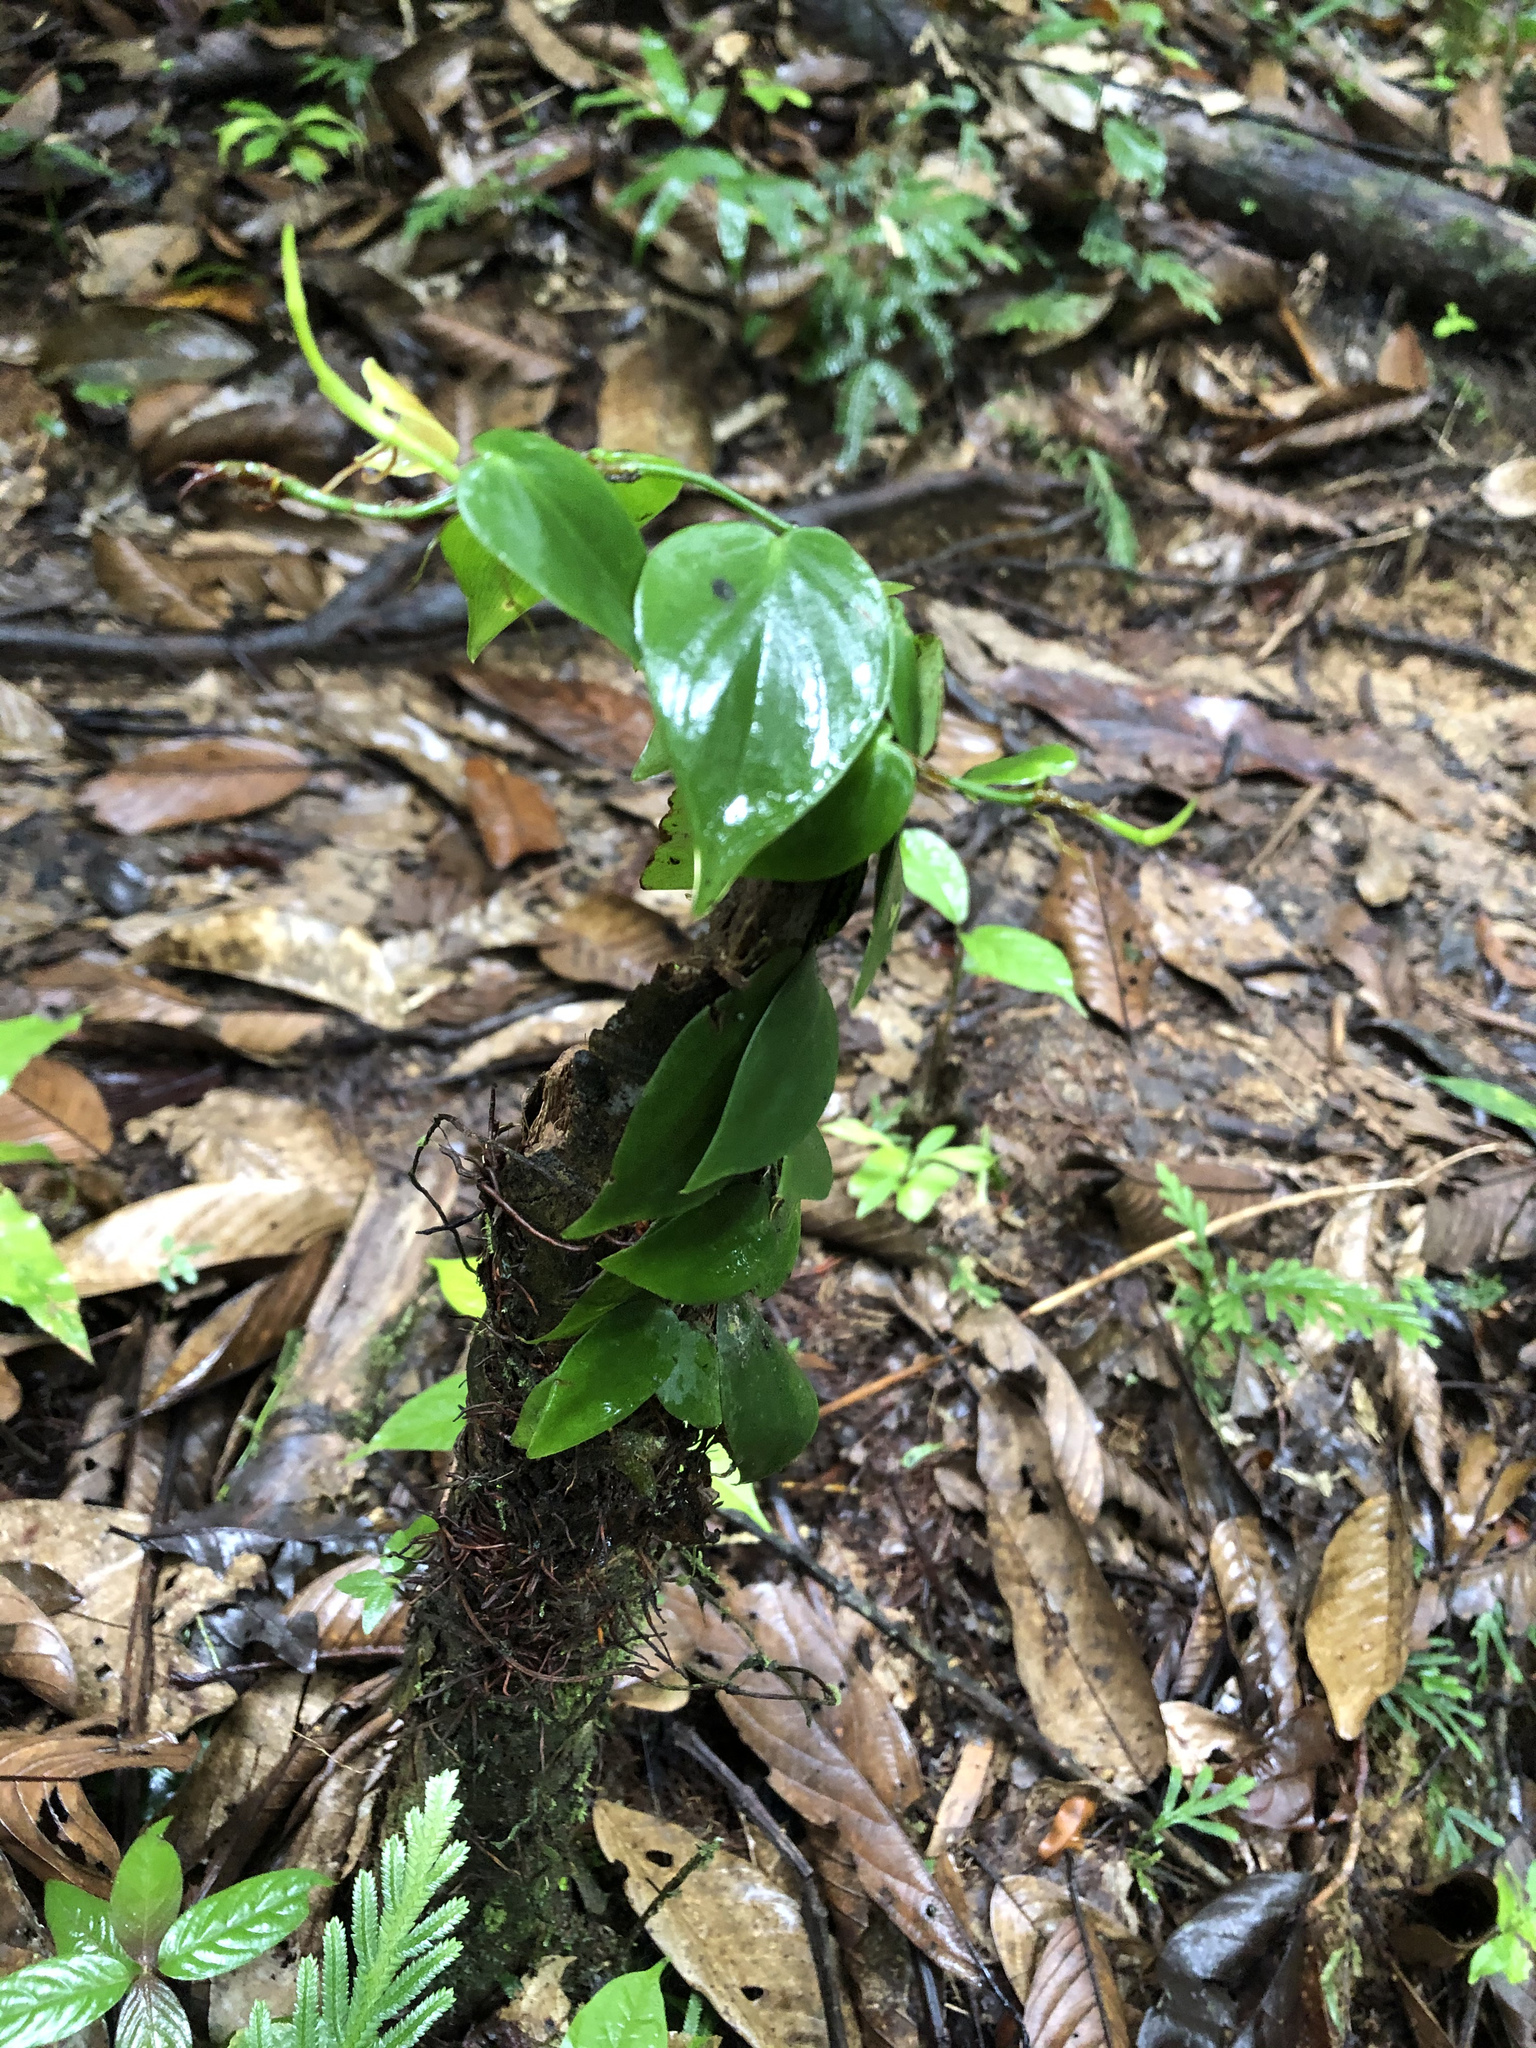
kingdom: Plantae
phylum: Tracheophyta
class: Liliopsida
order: Alismatales
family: Araceae
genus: Philodendron
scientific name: Philodendron hederaceum
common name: Vilevine
